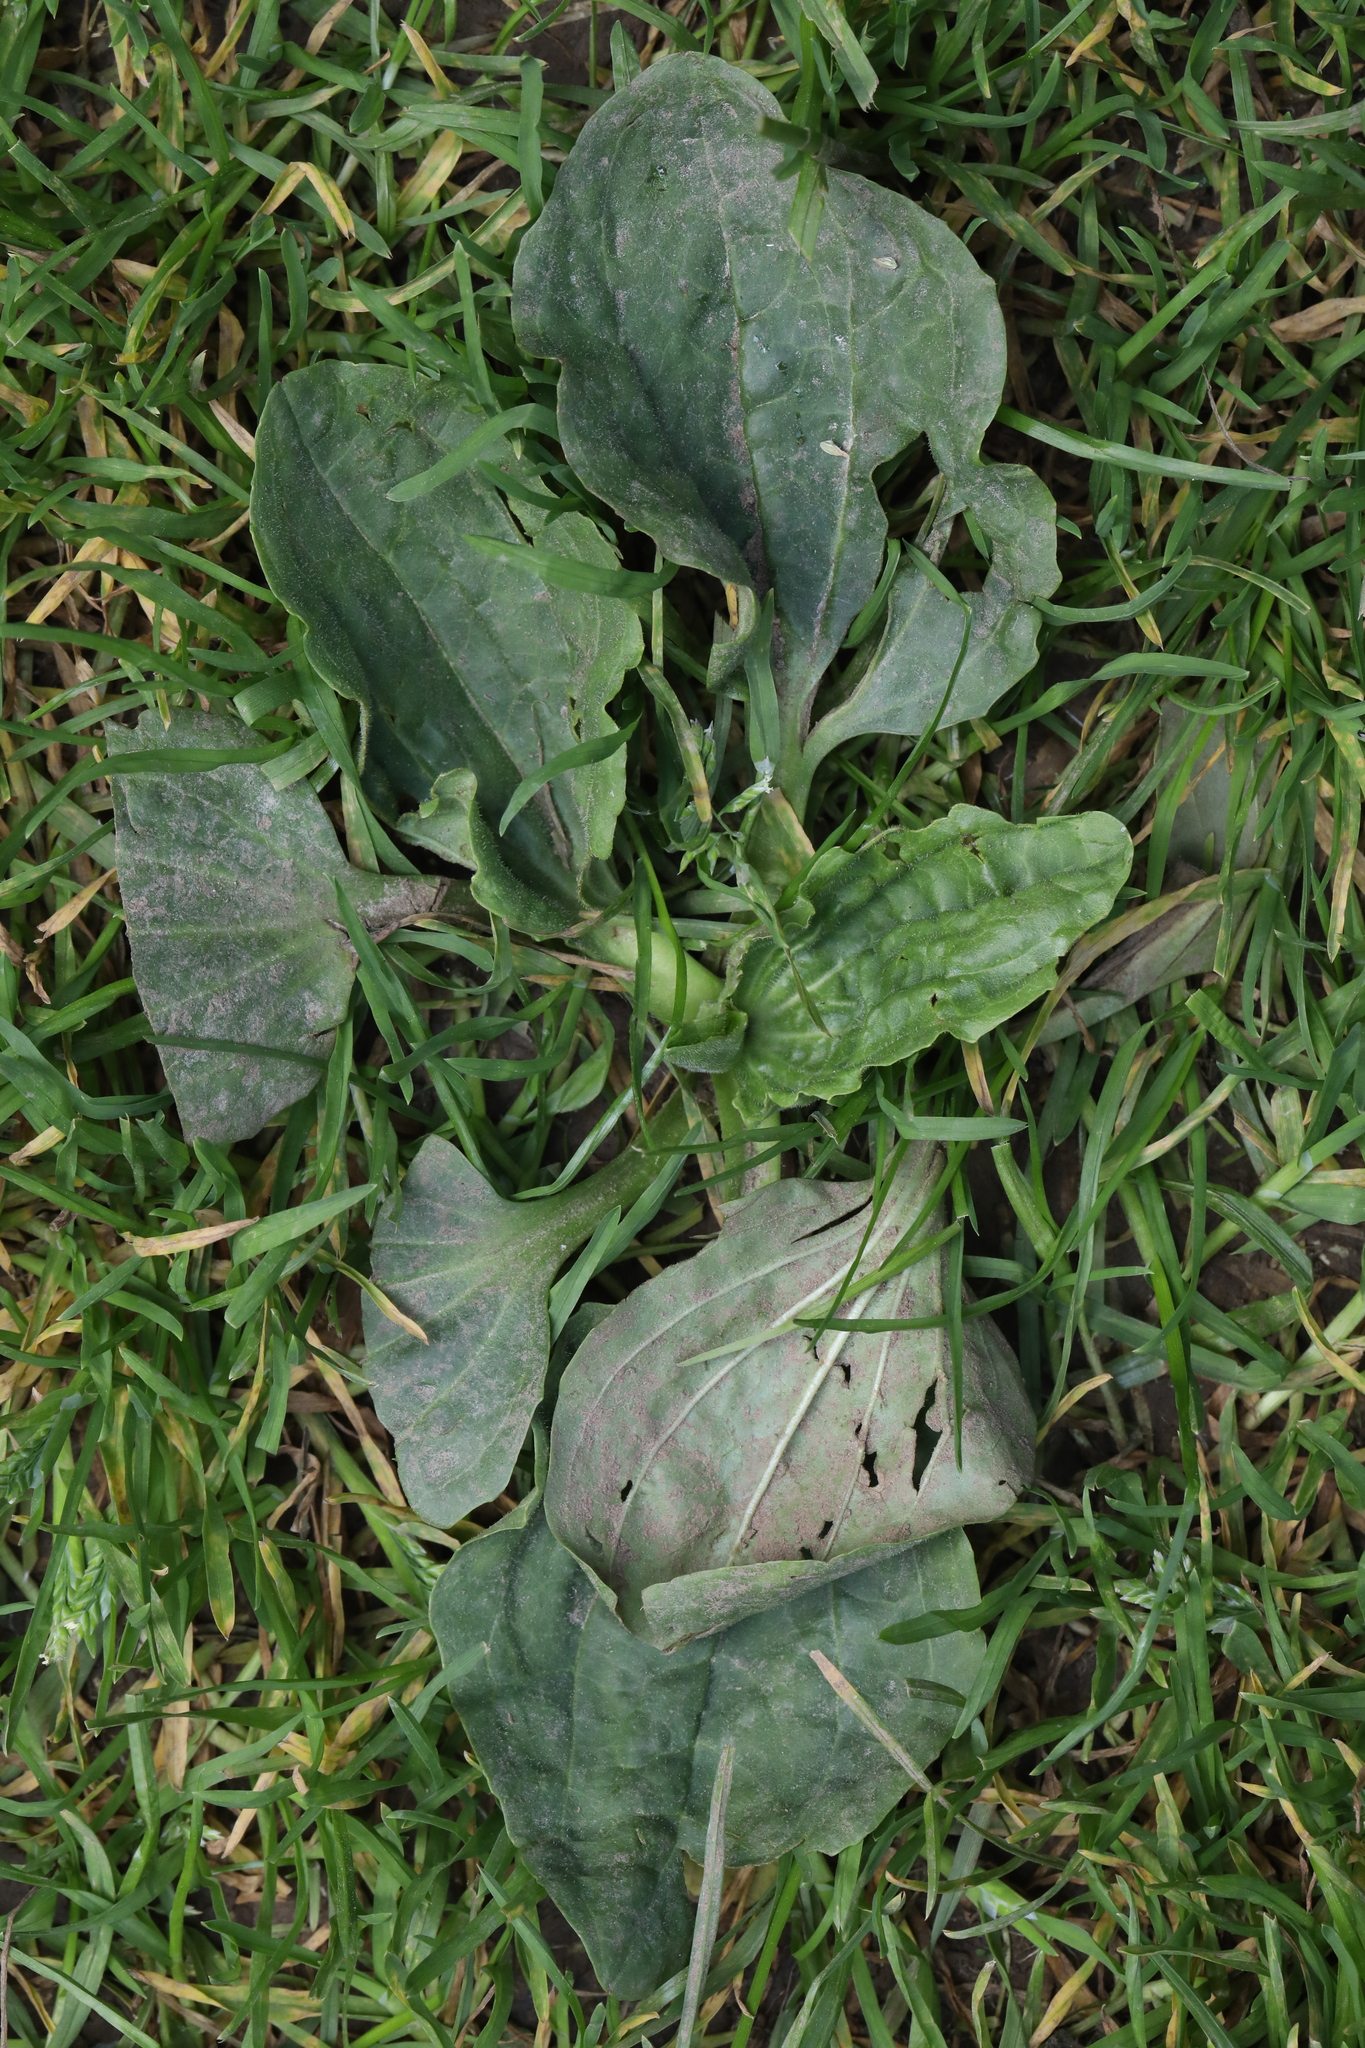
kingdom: Plantae
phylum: Tracheophyta
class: Magnoliopsida
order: Lamiales
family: Plantaginaceae
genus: Plantago
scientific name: Plantago major
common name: Common plantain
